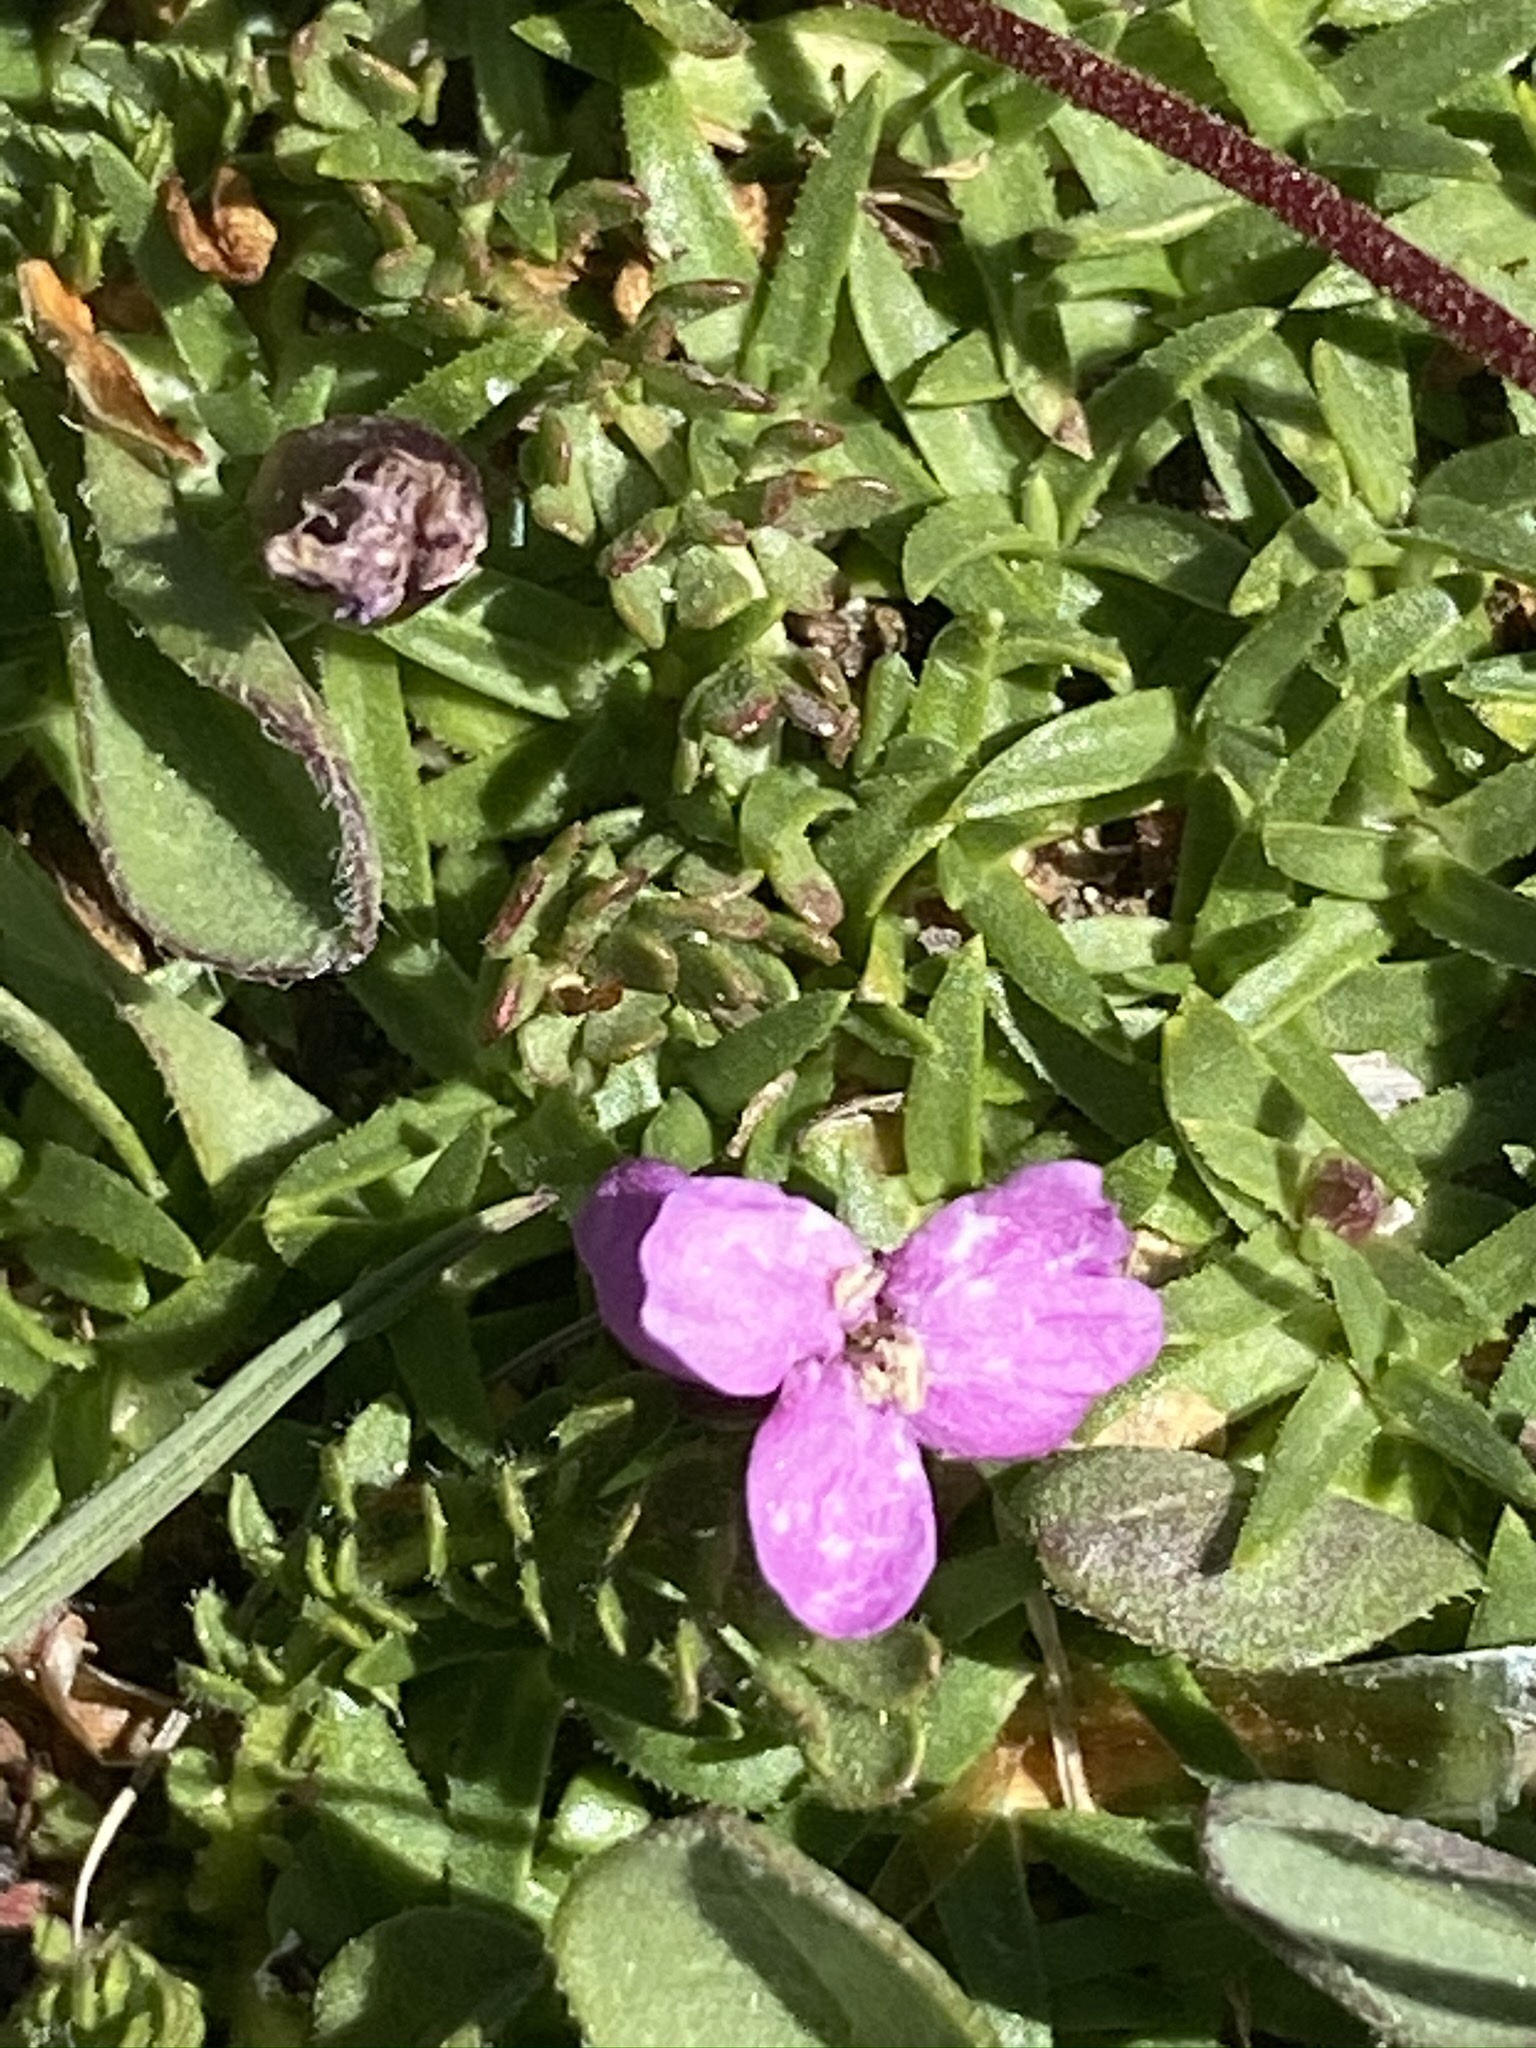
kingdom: Plantae
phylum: Tracheophyta
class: Magnoliopsida
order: Caryophyllales
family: Caryophyllaceae
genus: Silene
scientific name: Silene acaulis
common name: Moss campion
